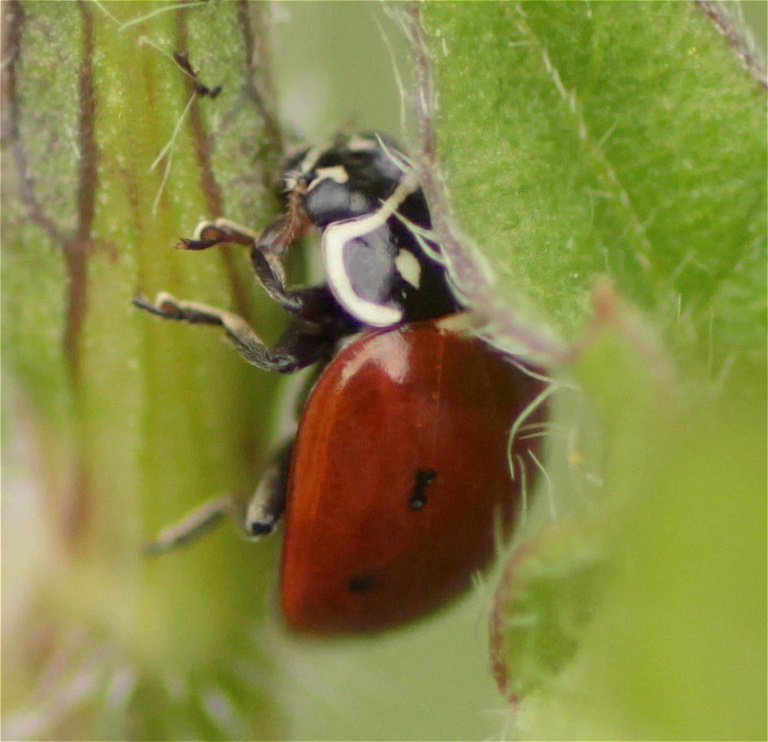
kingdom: Animalia
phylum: Arthropoda
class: Insecta
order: Coleoptera
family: Coccinellidae
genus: Cycloneda
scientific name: Cycloneda emarginata
